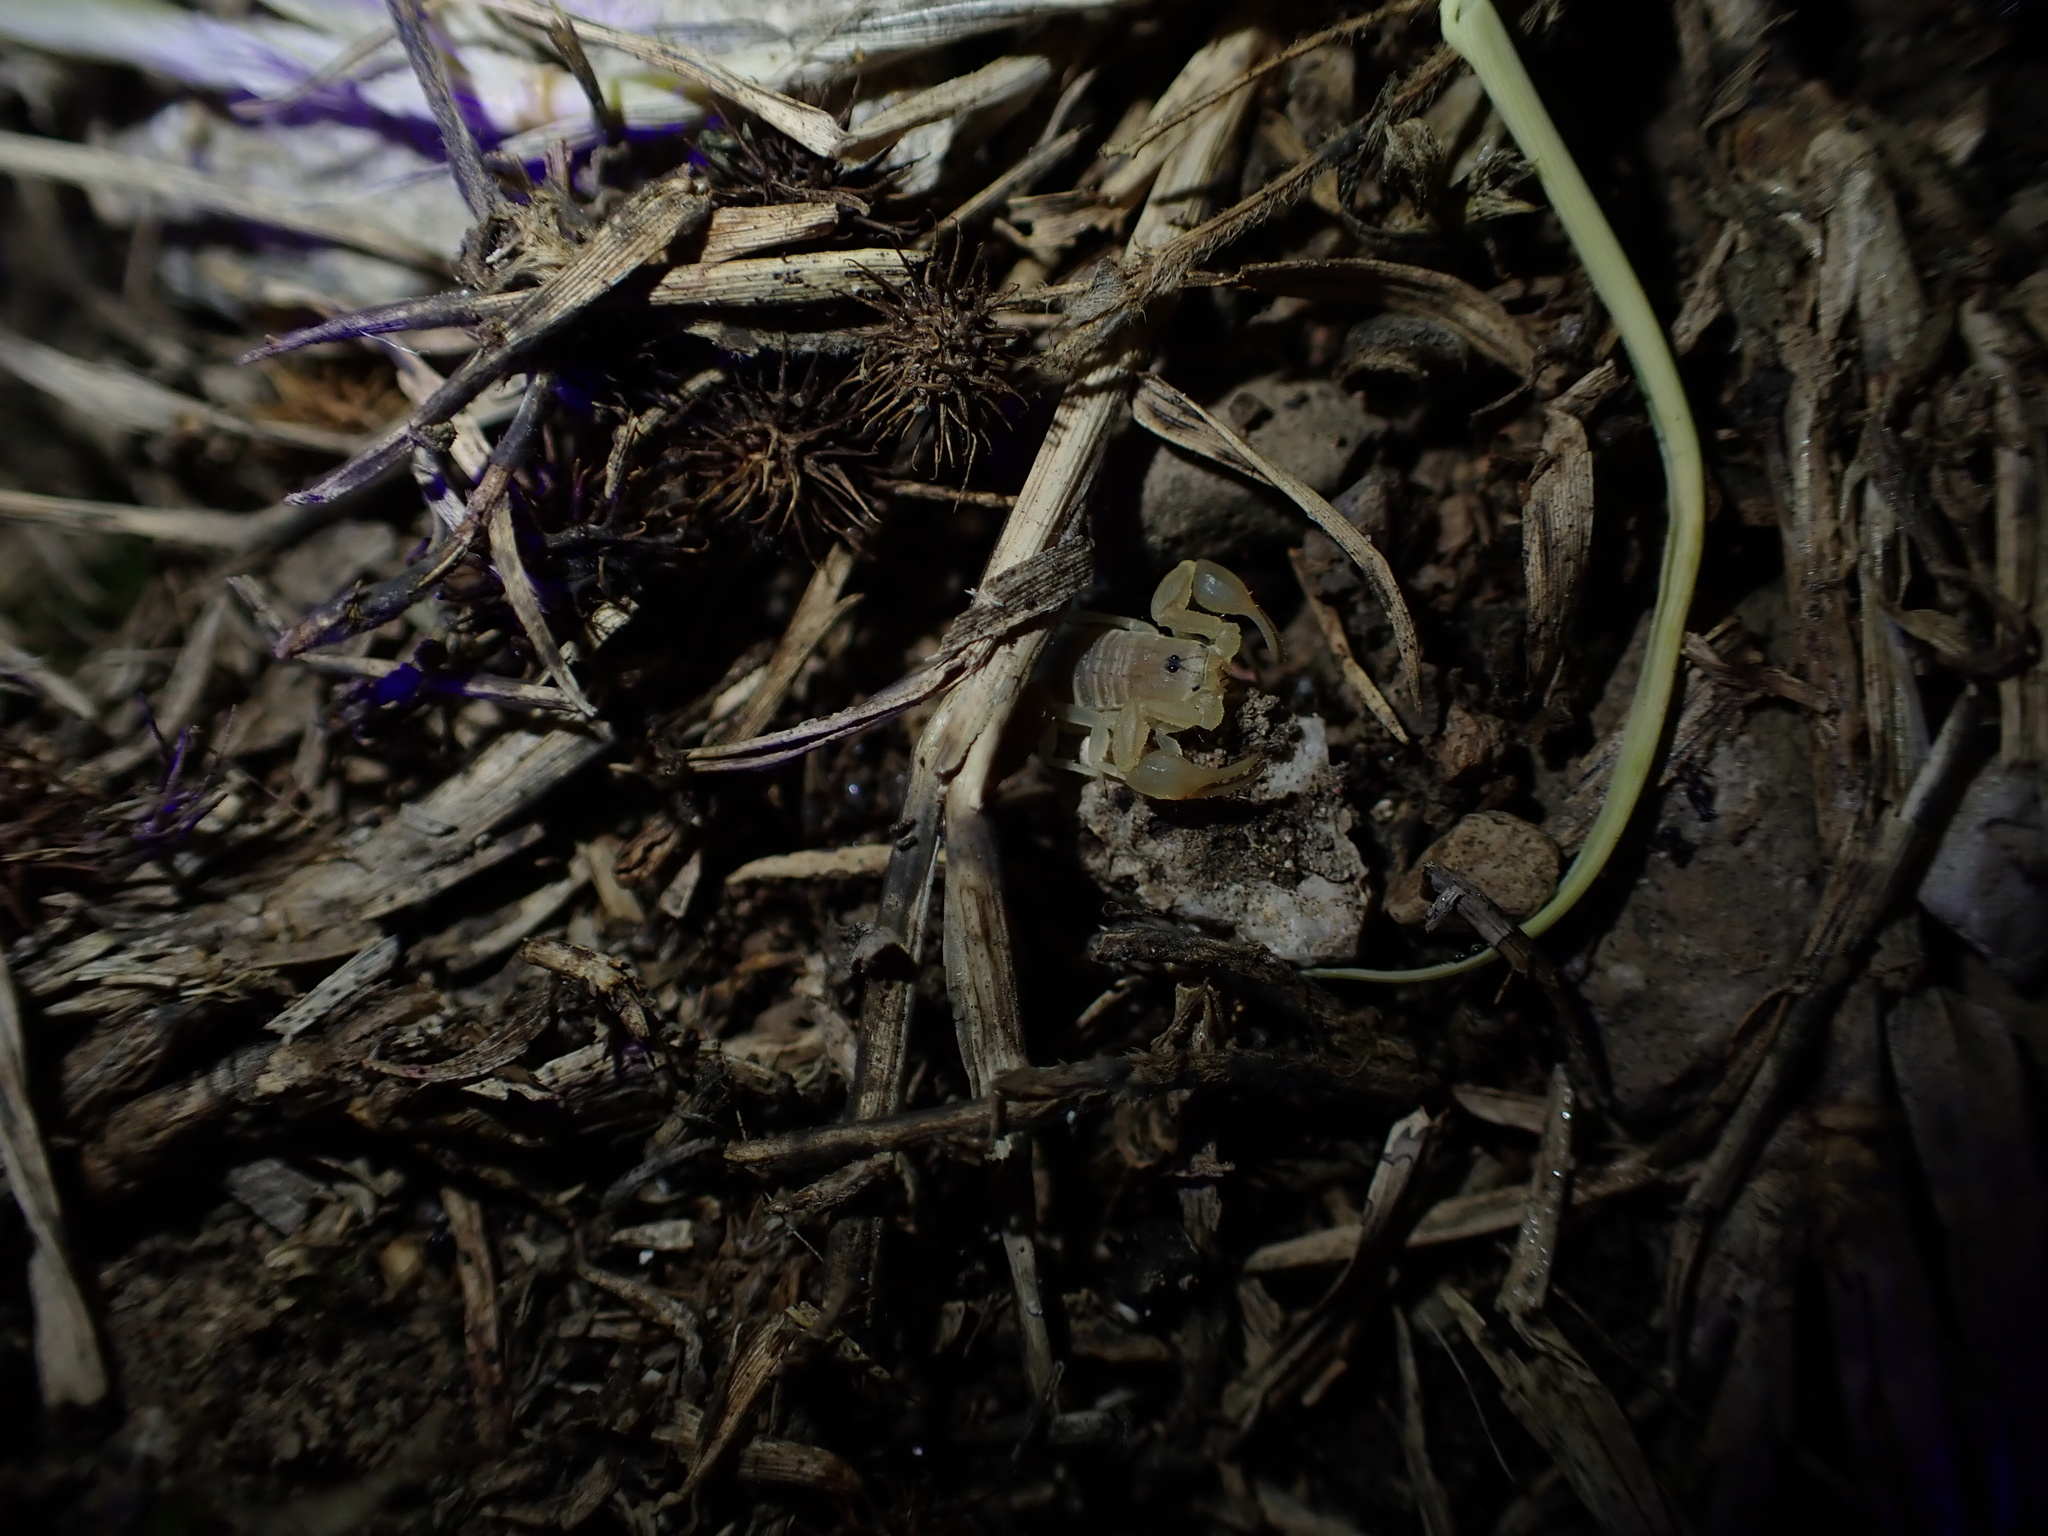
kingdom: Animalia
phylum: Arthropoda
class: Arachnida
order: Scorpiones
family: Buthidae
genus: Razianus
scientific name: Razianus zarudnyi
